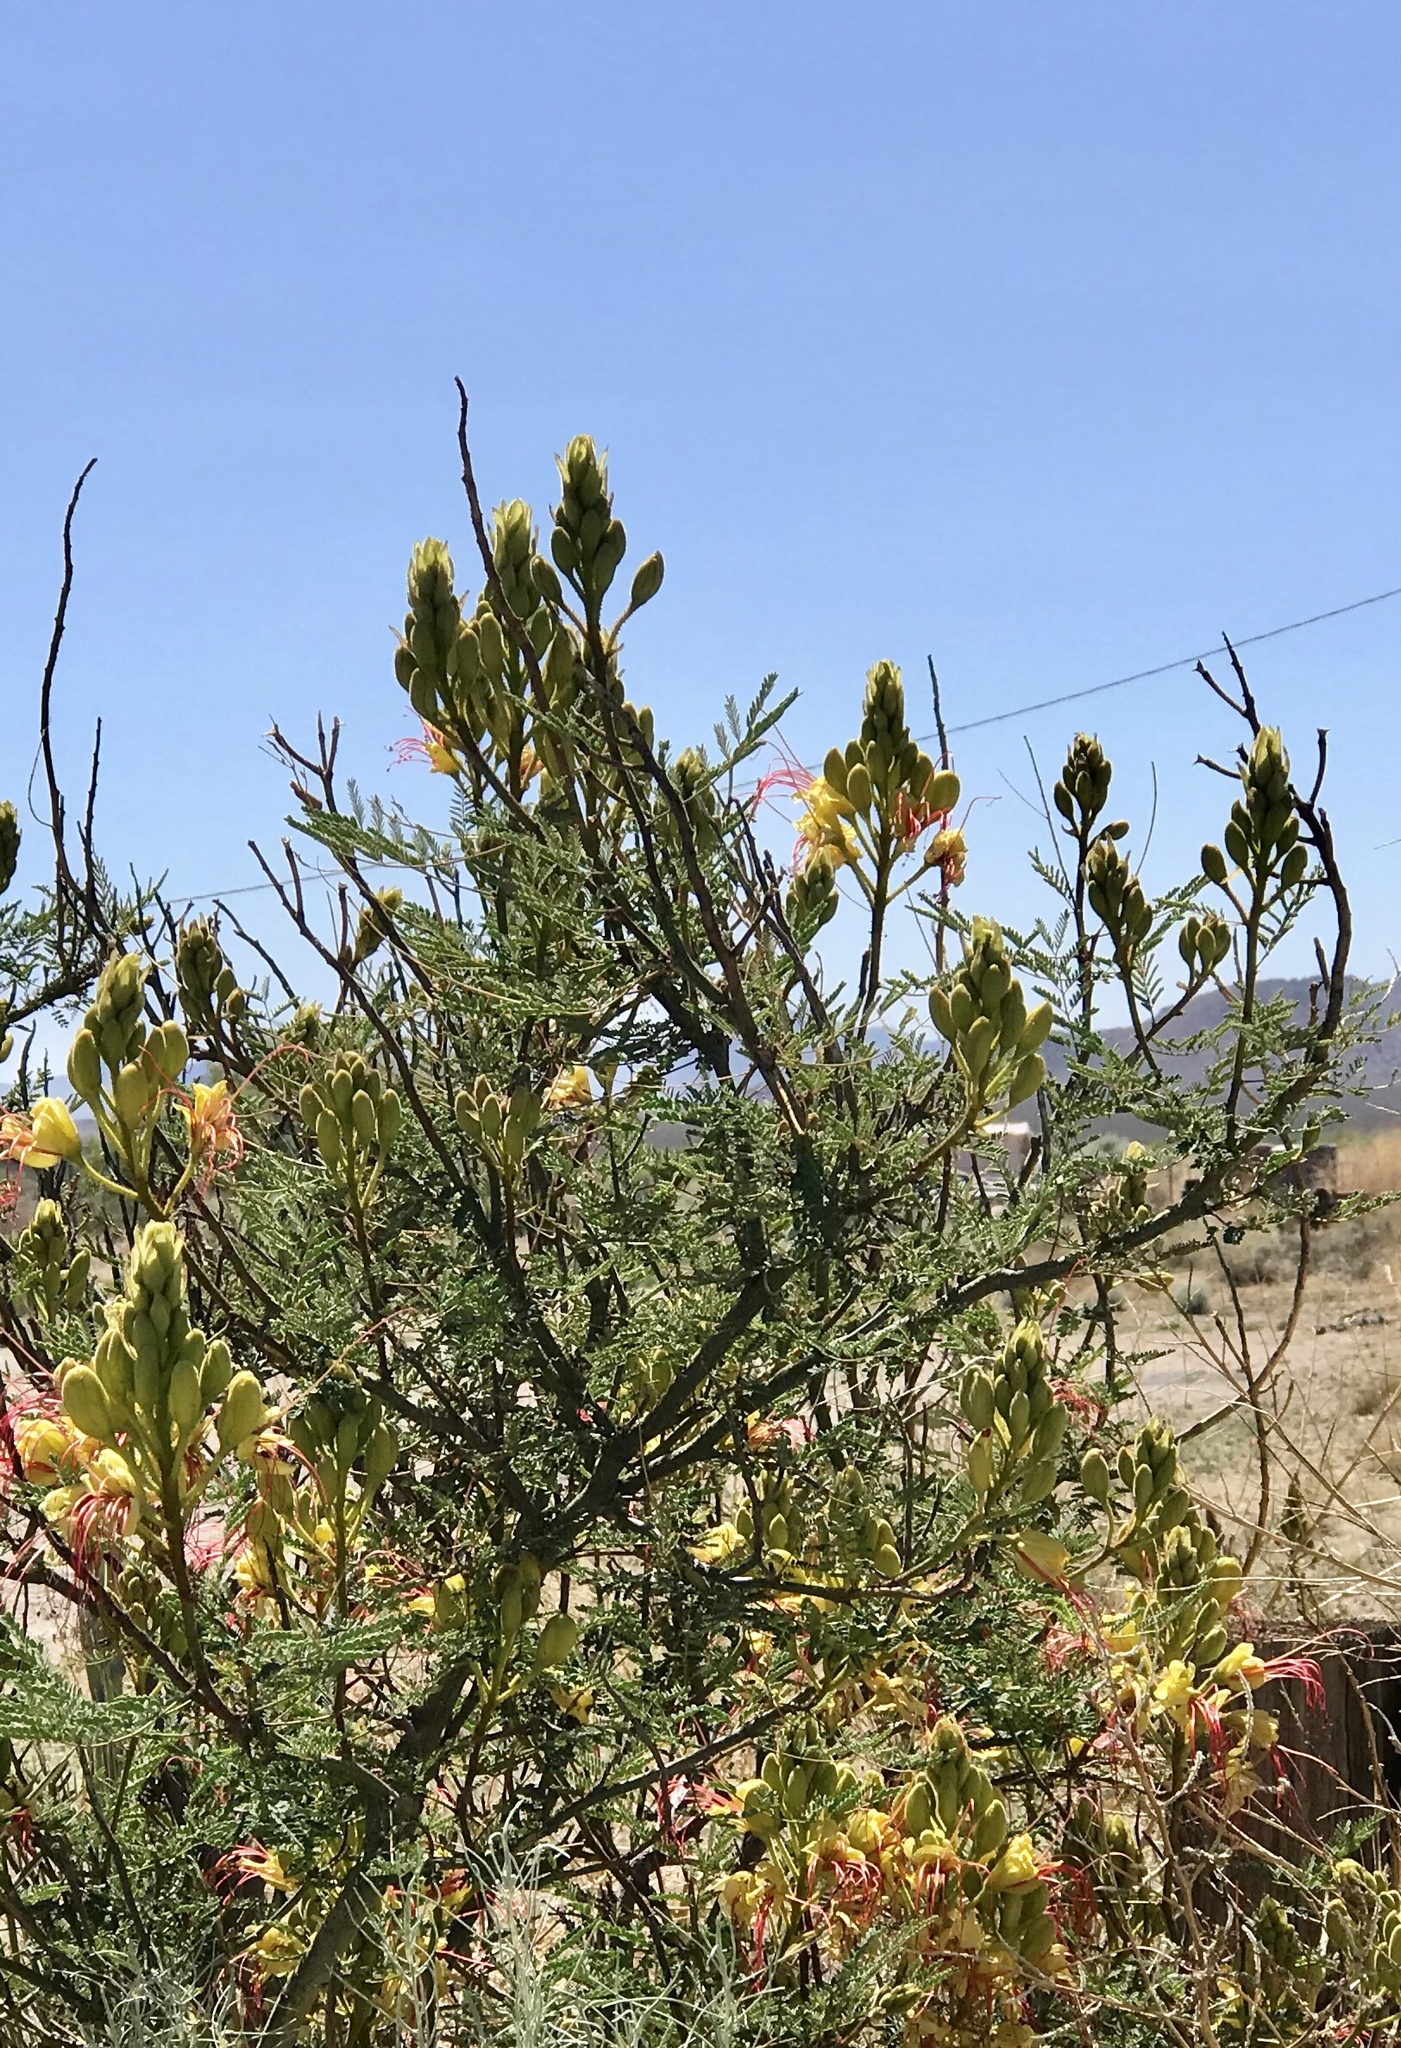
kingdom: Plantae
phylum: Tracheophyta
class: Magnoliopsida
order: Fabales
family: Fabaceae
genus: Erythrostemon
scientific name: Erythrostemon gilliesii
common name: Bird-of-paradise shrub
